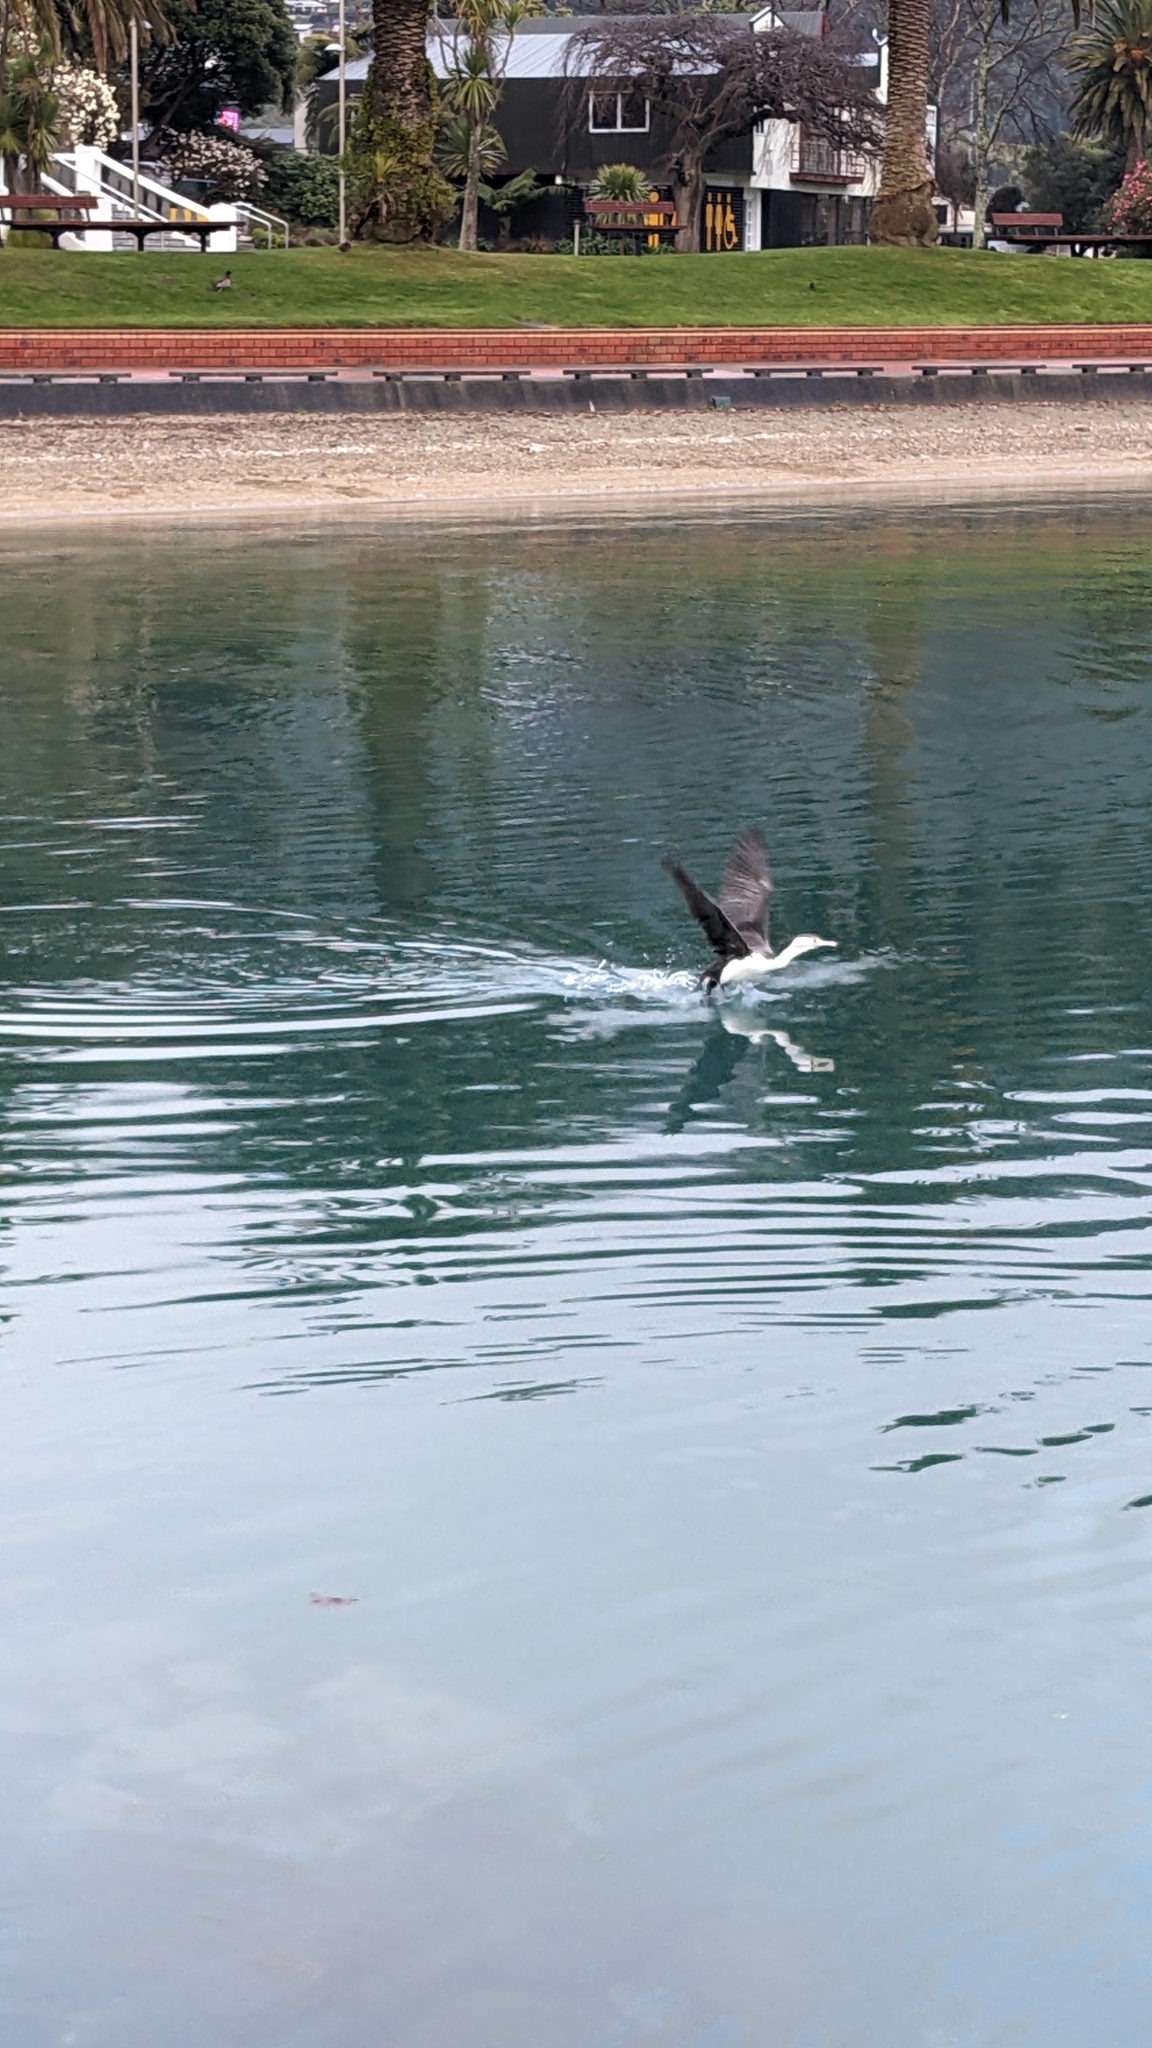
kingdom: Animalia
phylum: Chordata
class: Aves
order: Suliformes
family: Phalacrocoracidae
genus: Phalacrocorax
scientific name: Phalacrocorax varius
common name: Pied cormorant
